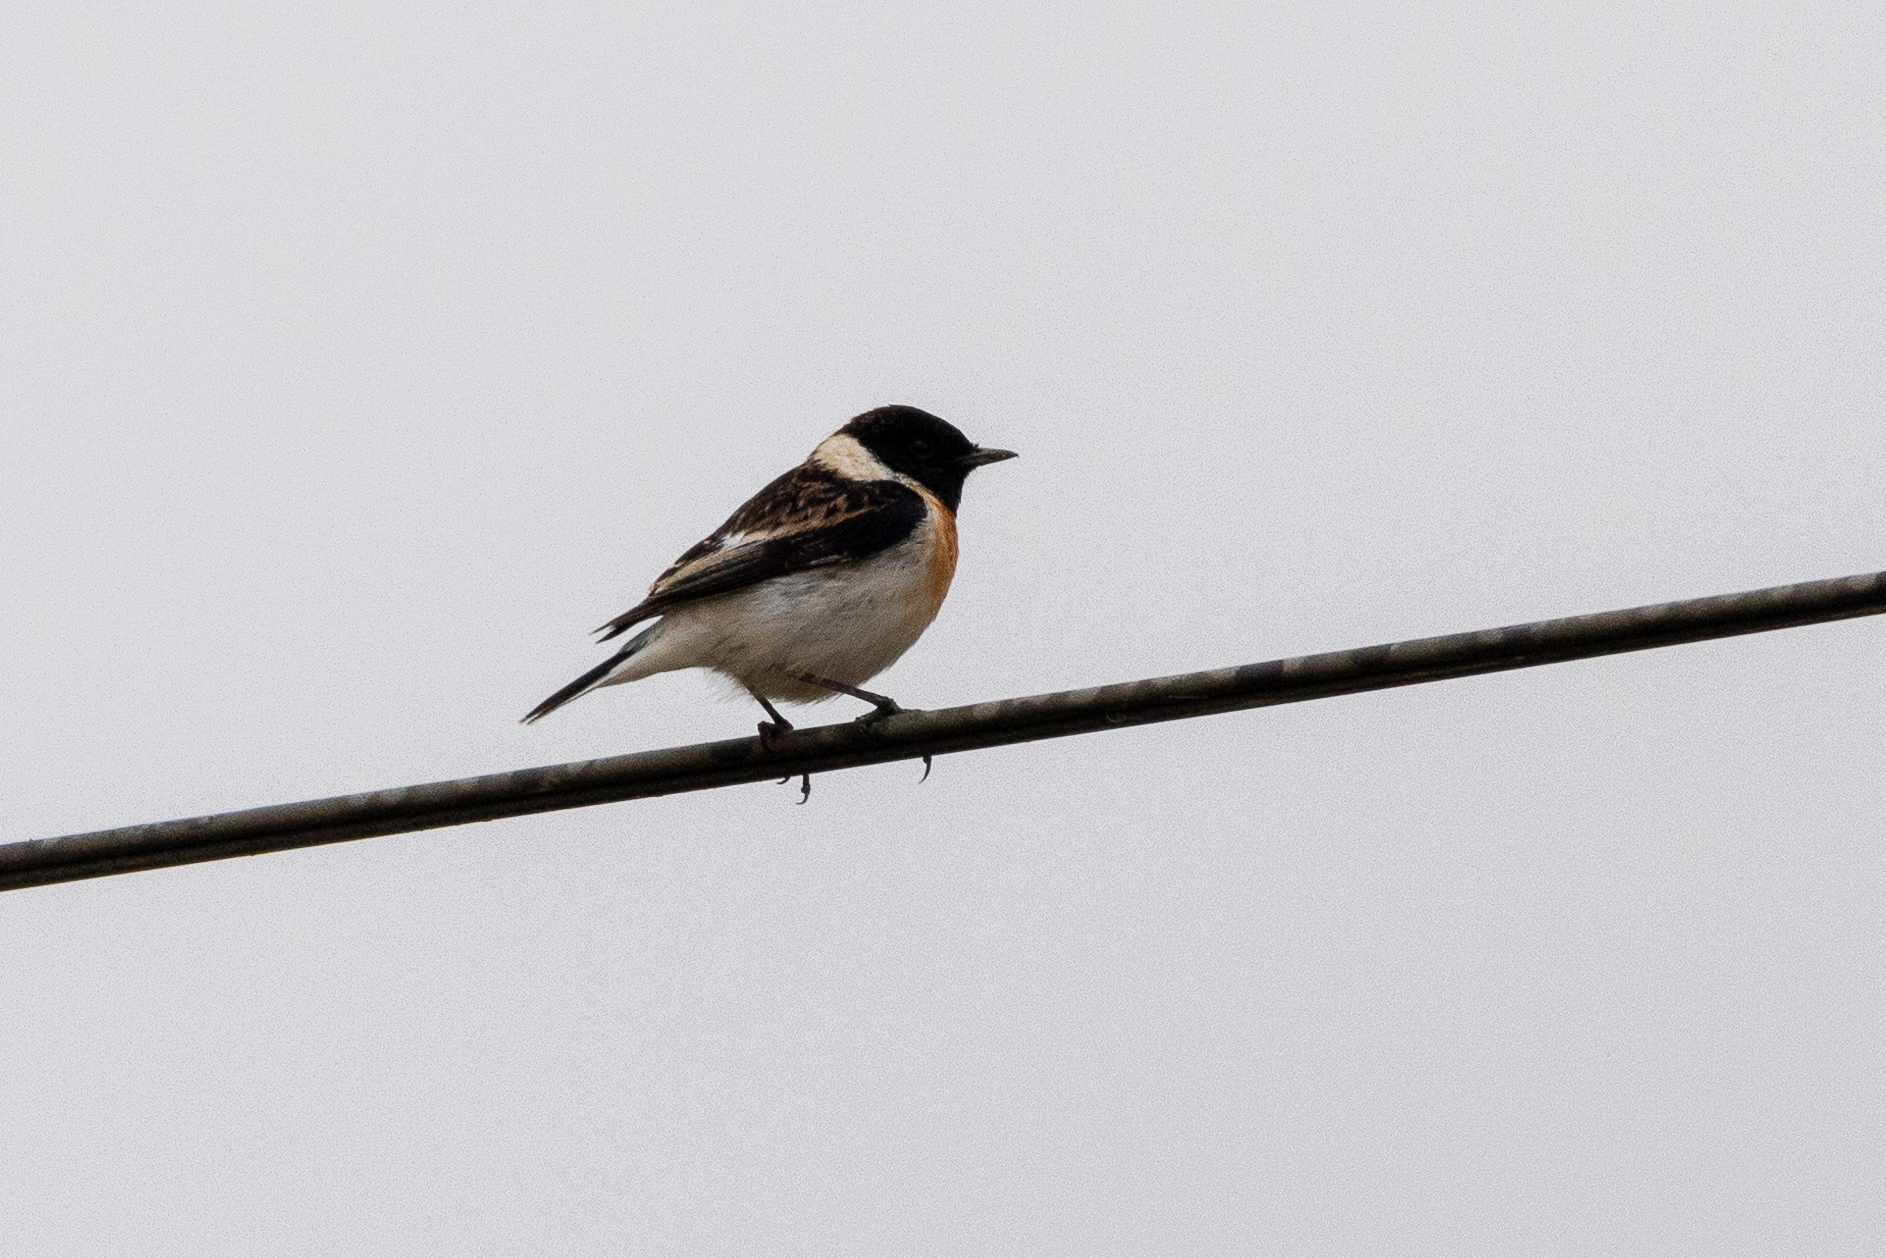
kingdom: Animalia
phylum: Chordata
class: Aves
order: Passeriformes
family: Muscicapidae
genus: Saxicola
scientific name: Saxicola maurus
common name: Siberian stonechat
